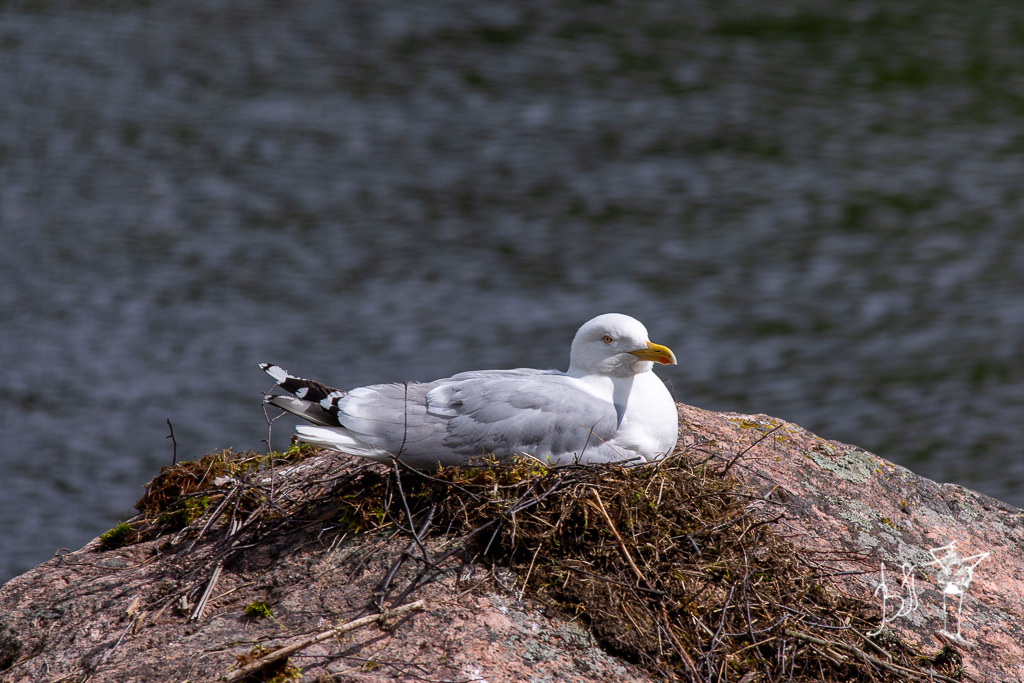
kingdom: Animalia
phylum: Chordata
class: Aves
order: Charadriiformes
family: Laridae
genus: Larus
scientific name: Larus argentatus
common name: Herring gull
